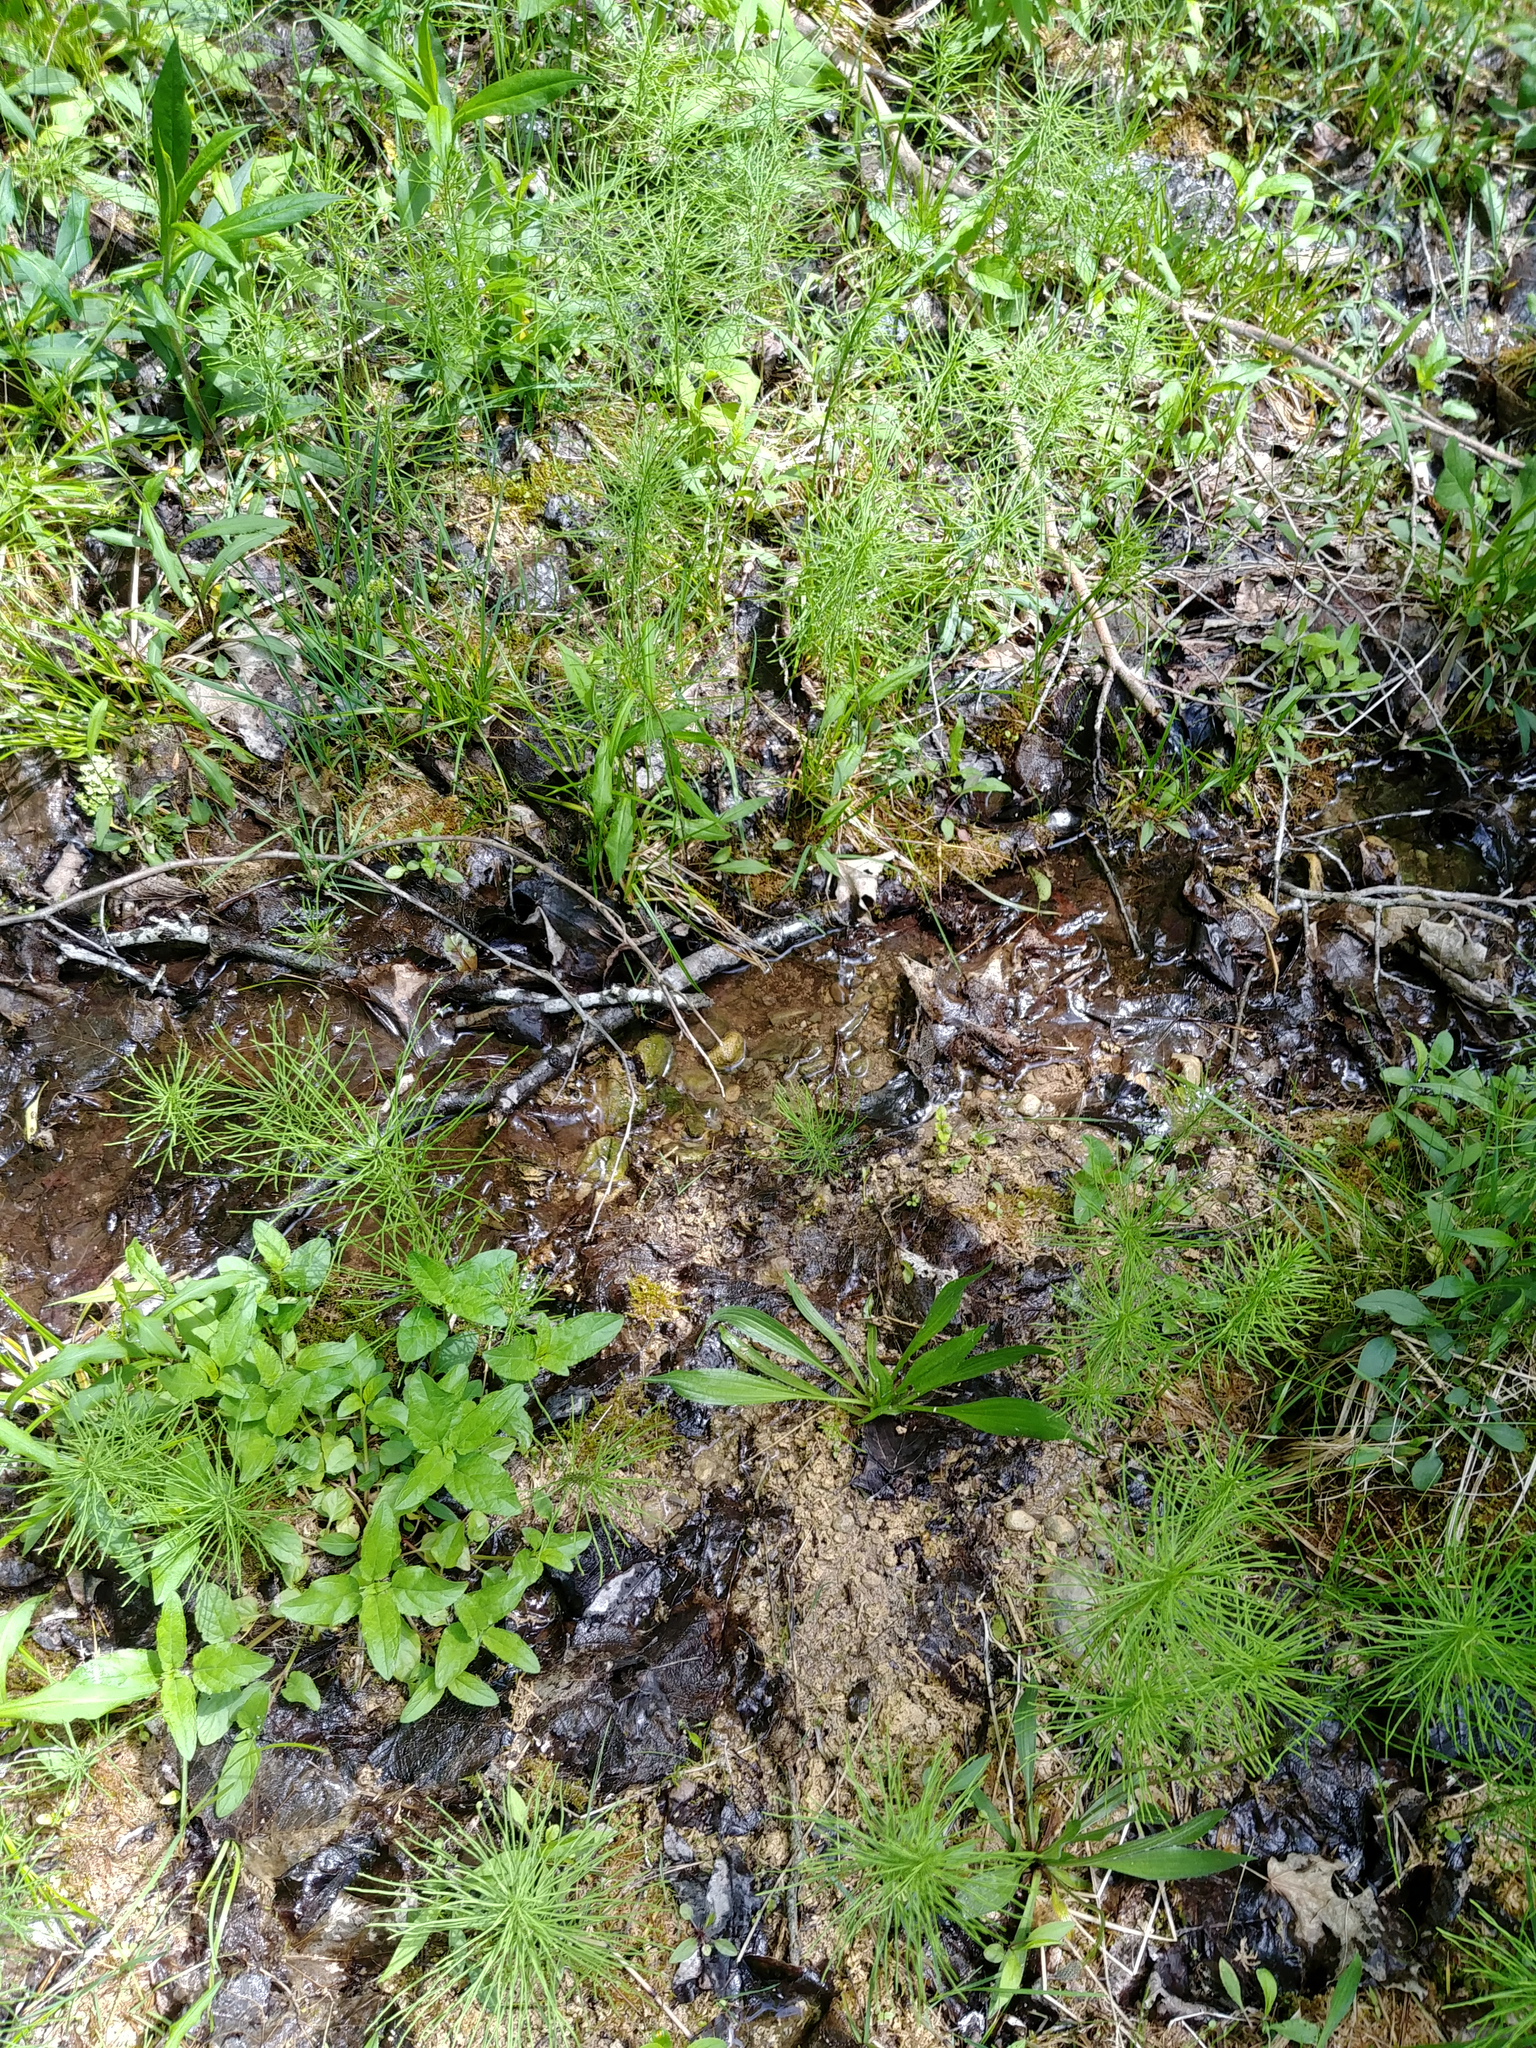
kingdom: Plantae
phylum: Tracheophyta
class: Polypodiopsida
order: Equisetales
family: Equisetaceae
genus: Equisetum
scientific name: Equisetum arvense
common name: Field horsetail
